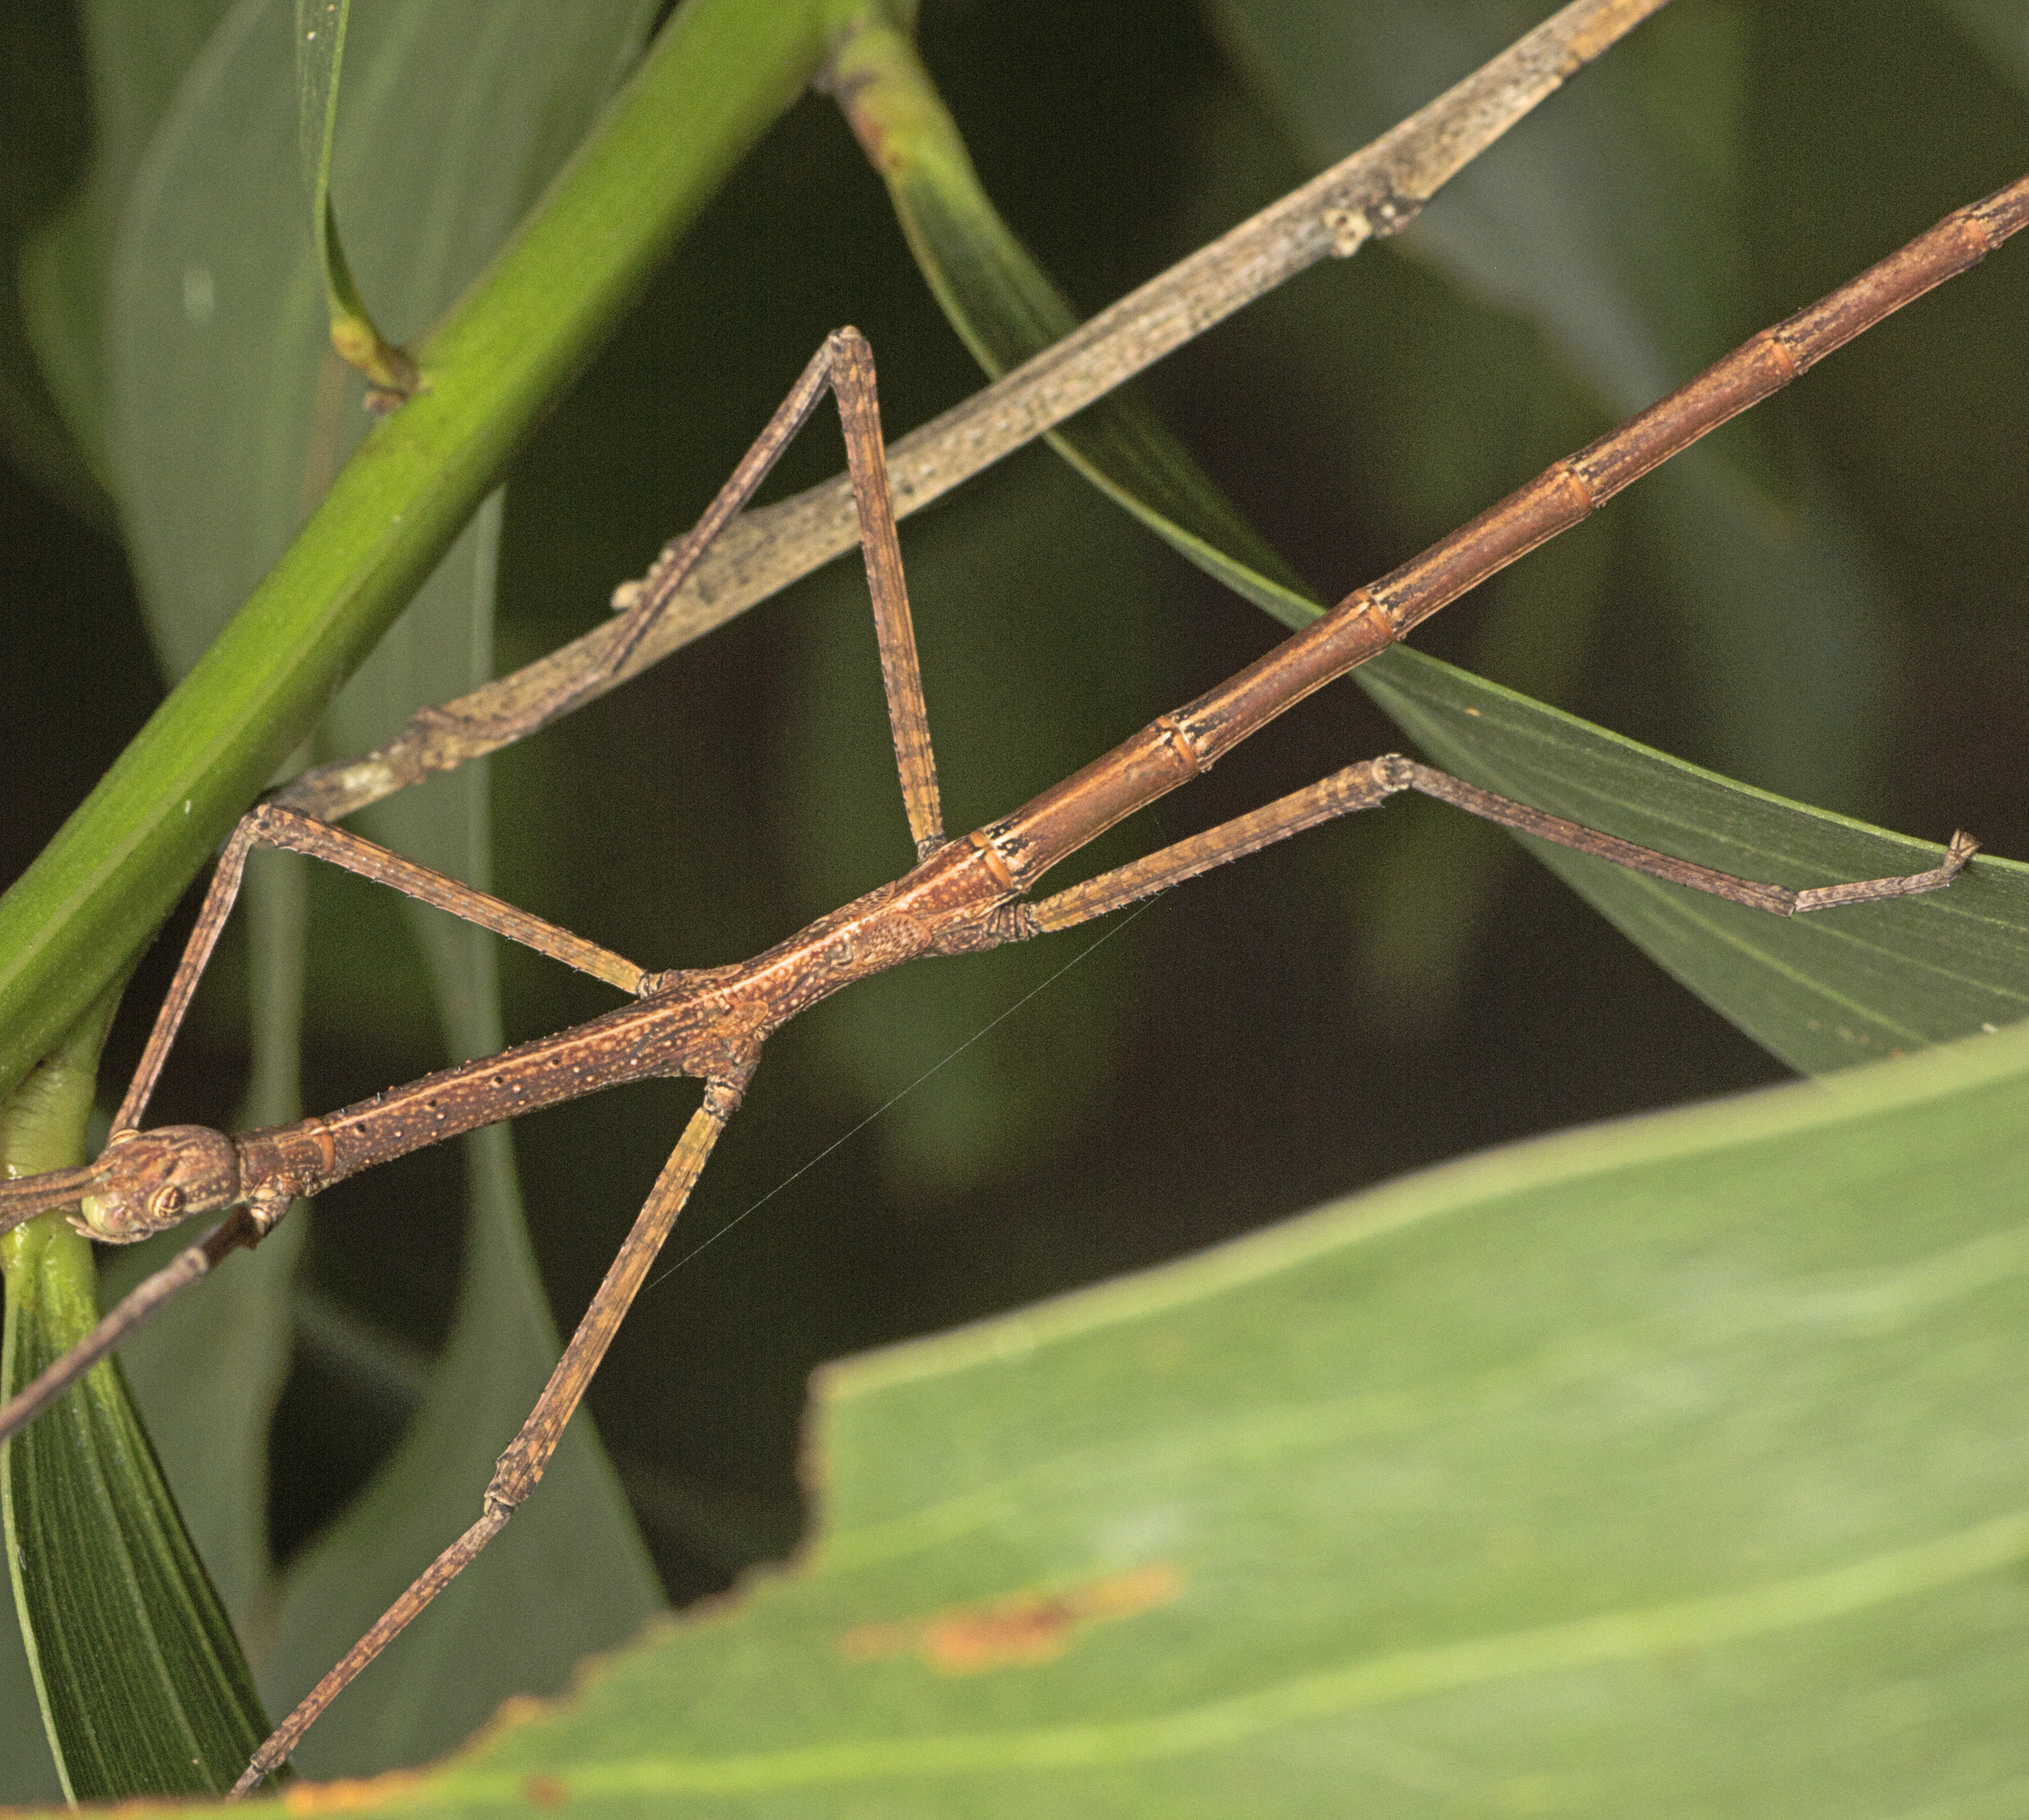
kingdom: Animalia
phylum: Arthropoda
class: Insecta
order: Phasmida
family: Phasmatidae
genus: Anchiale
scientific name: Anchiale austrotessulata
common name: Tessellated stick-insect
